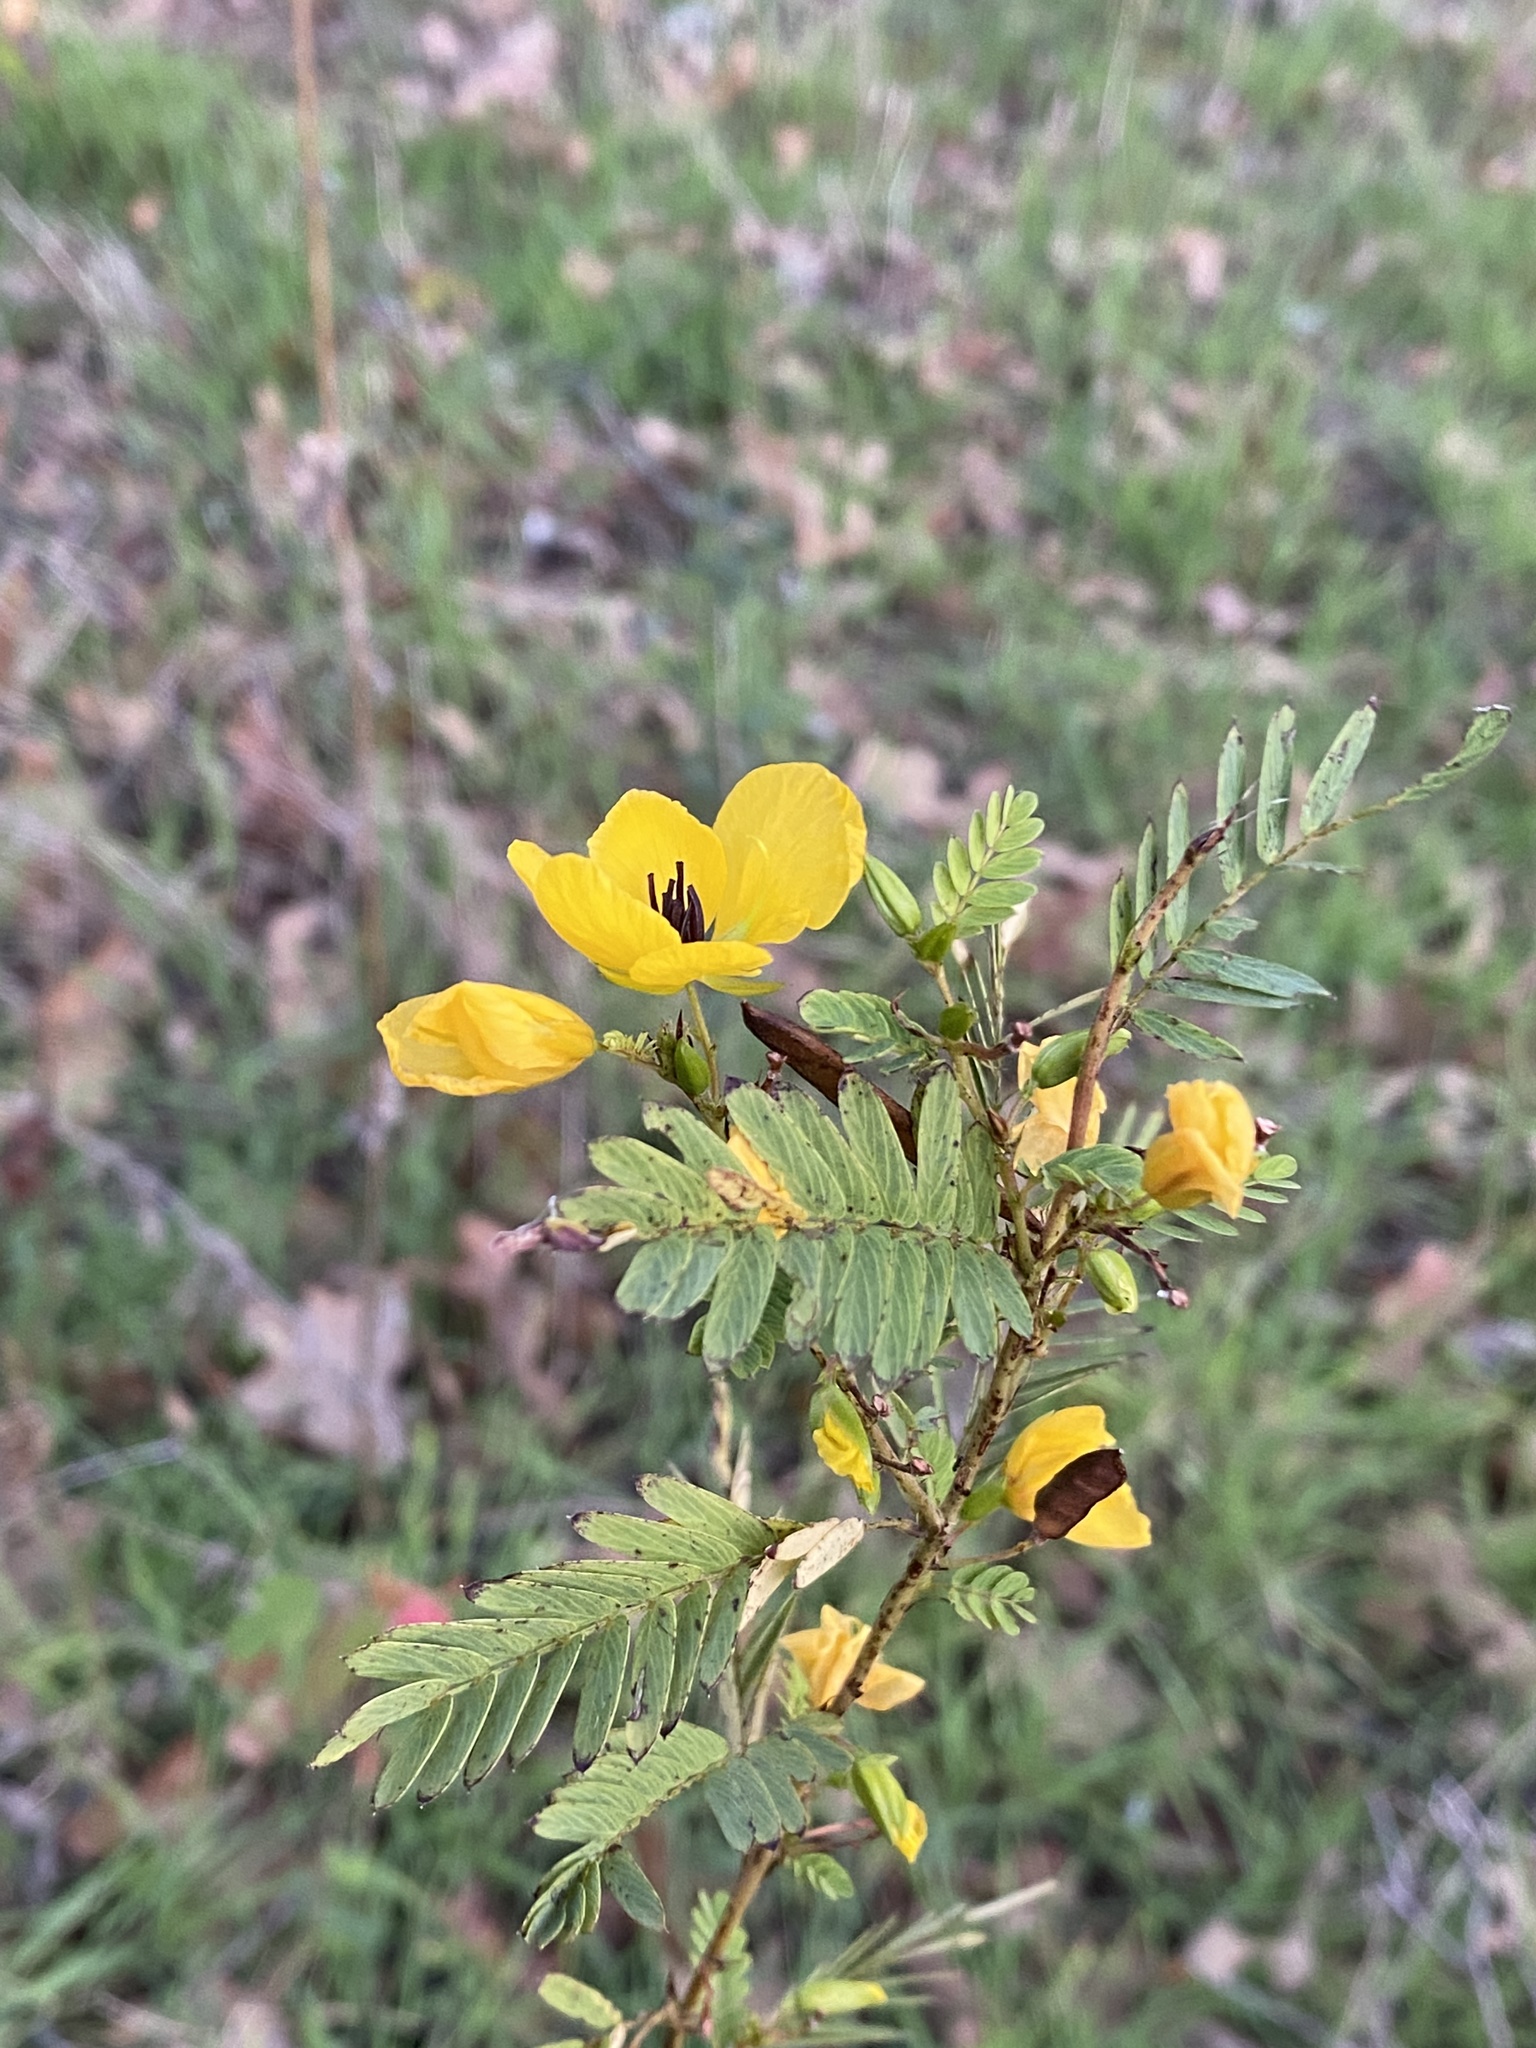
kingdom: Plantae
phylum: Tracheophyta
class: Magnoliopsida
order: Fabales
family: Fabaceae
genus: Chamaecrista
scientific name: Chamaecrista fasciculata
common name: Golden cassia
